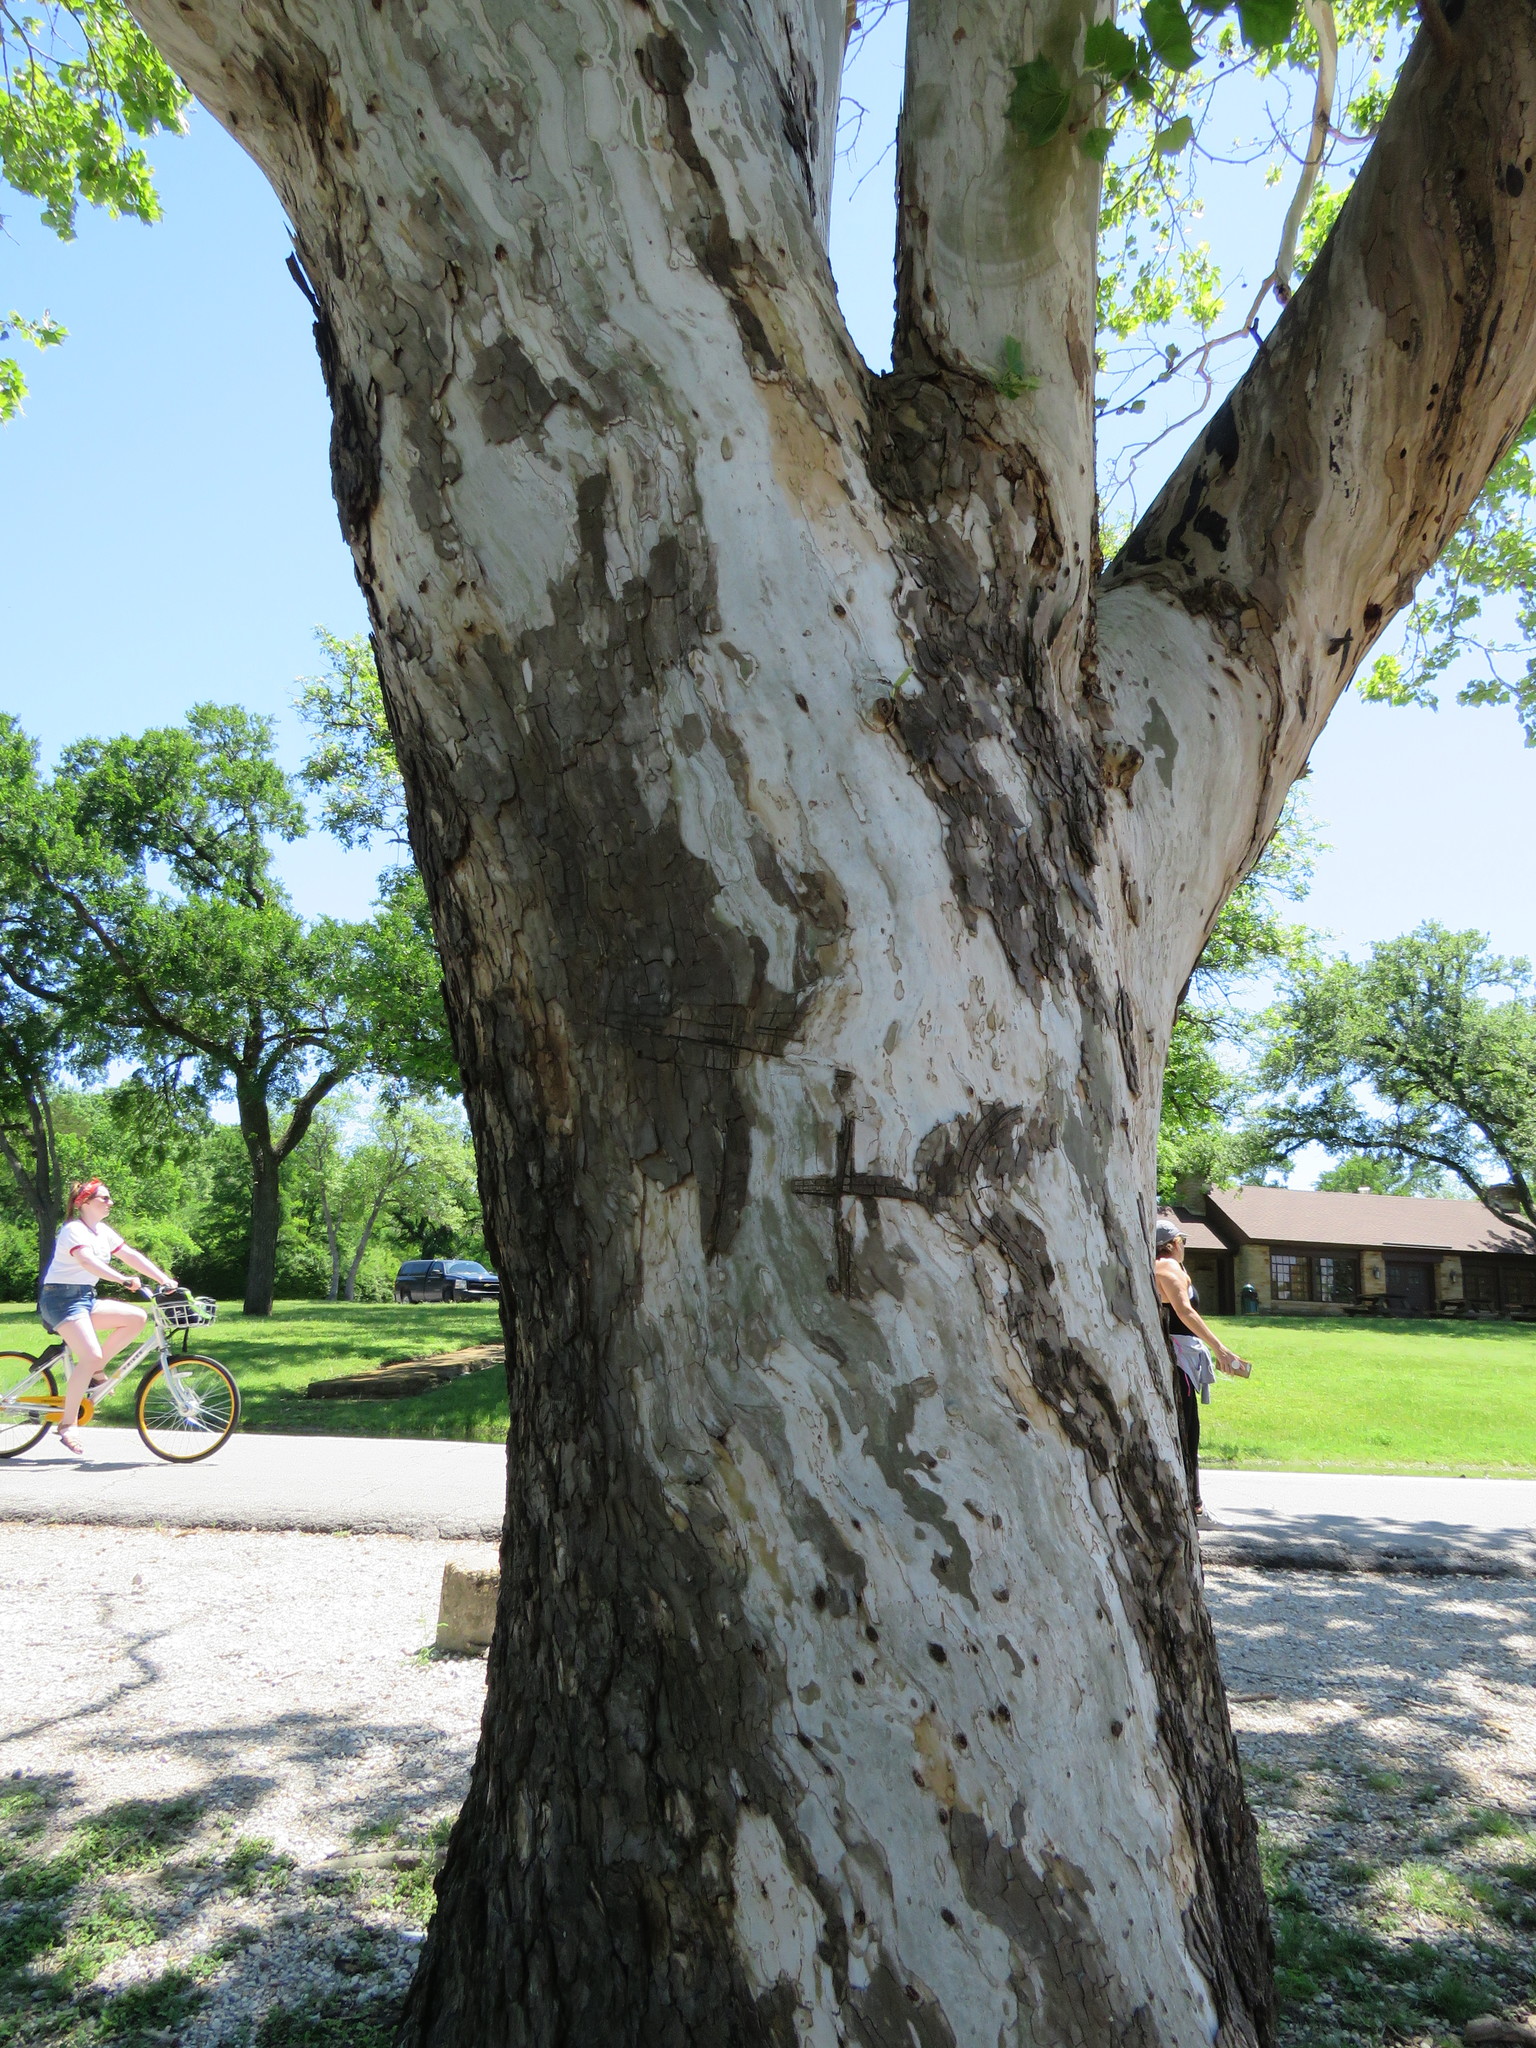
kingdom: Plantae
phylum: Tracheophyta
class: Magnoliopsida
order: Proteales
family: Platanaceae
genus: Platanus
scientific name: Platanus occidentalis
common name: American sycamore
